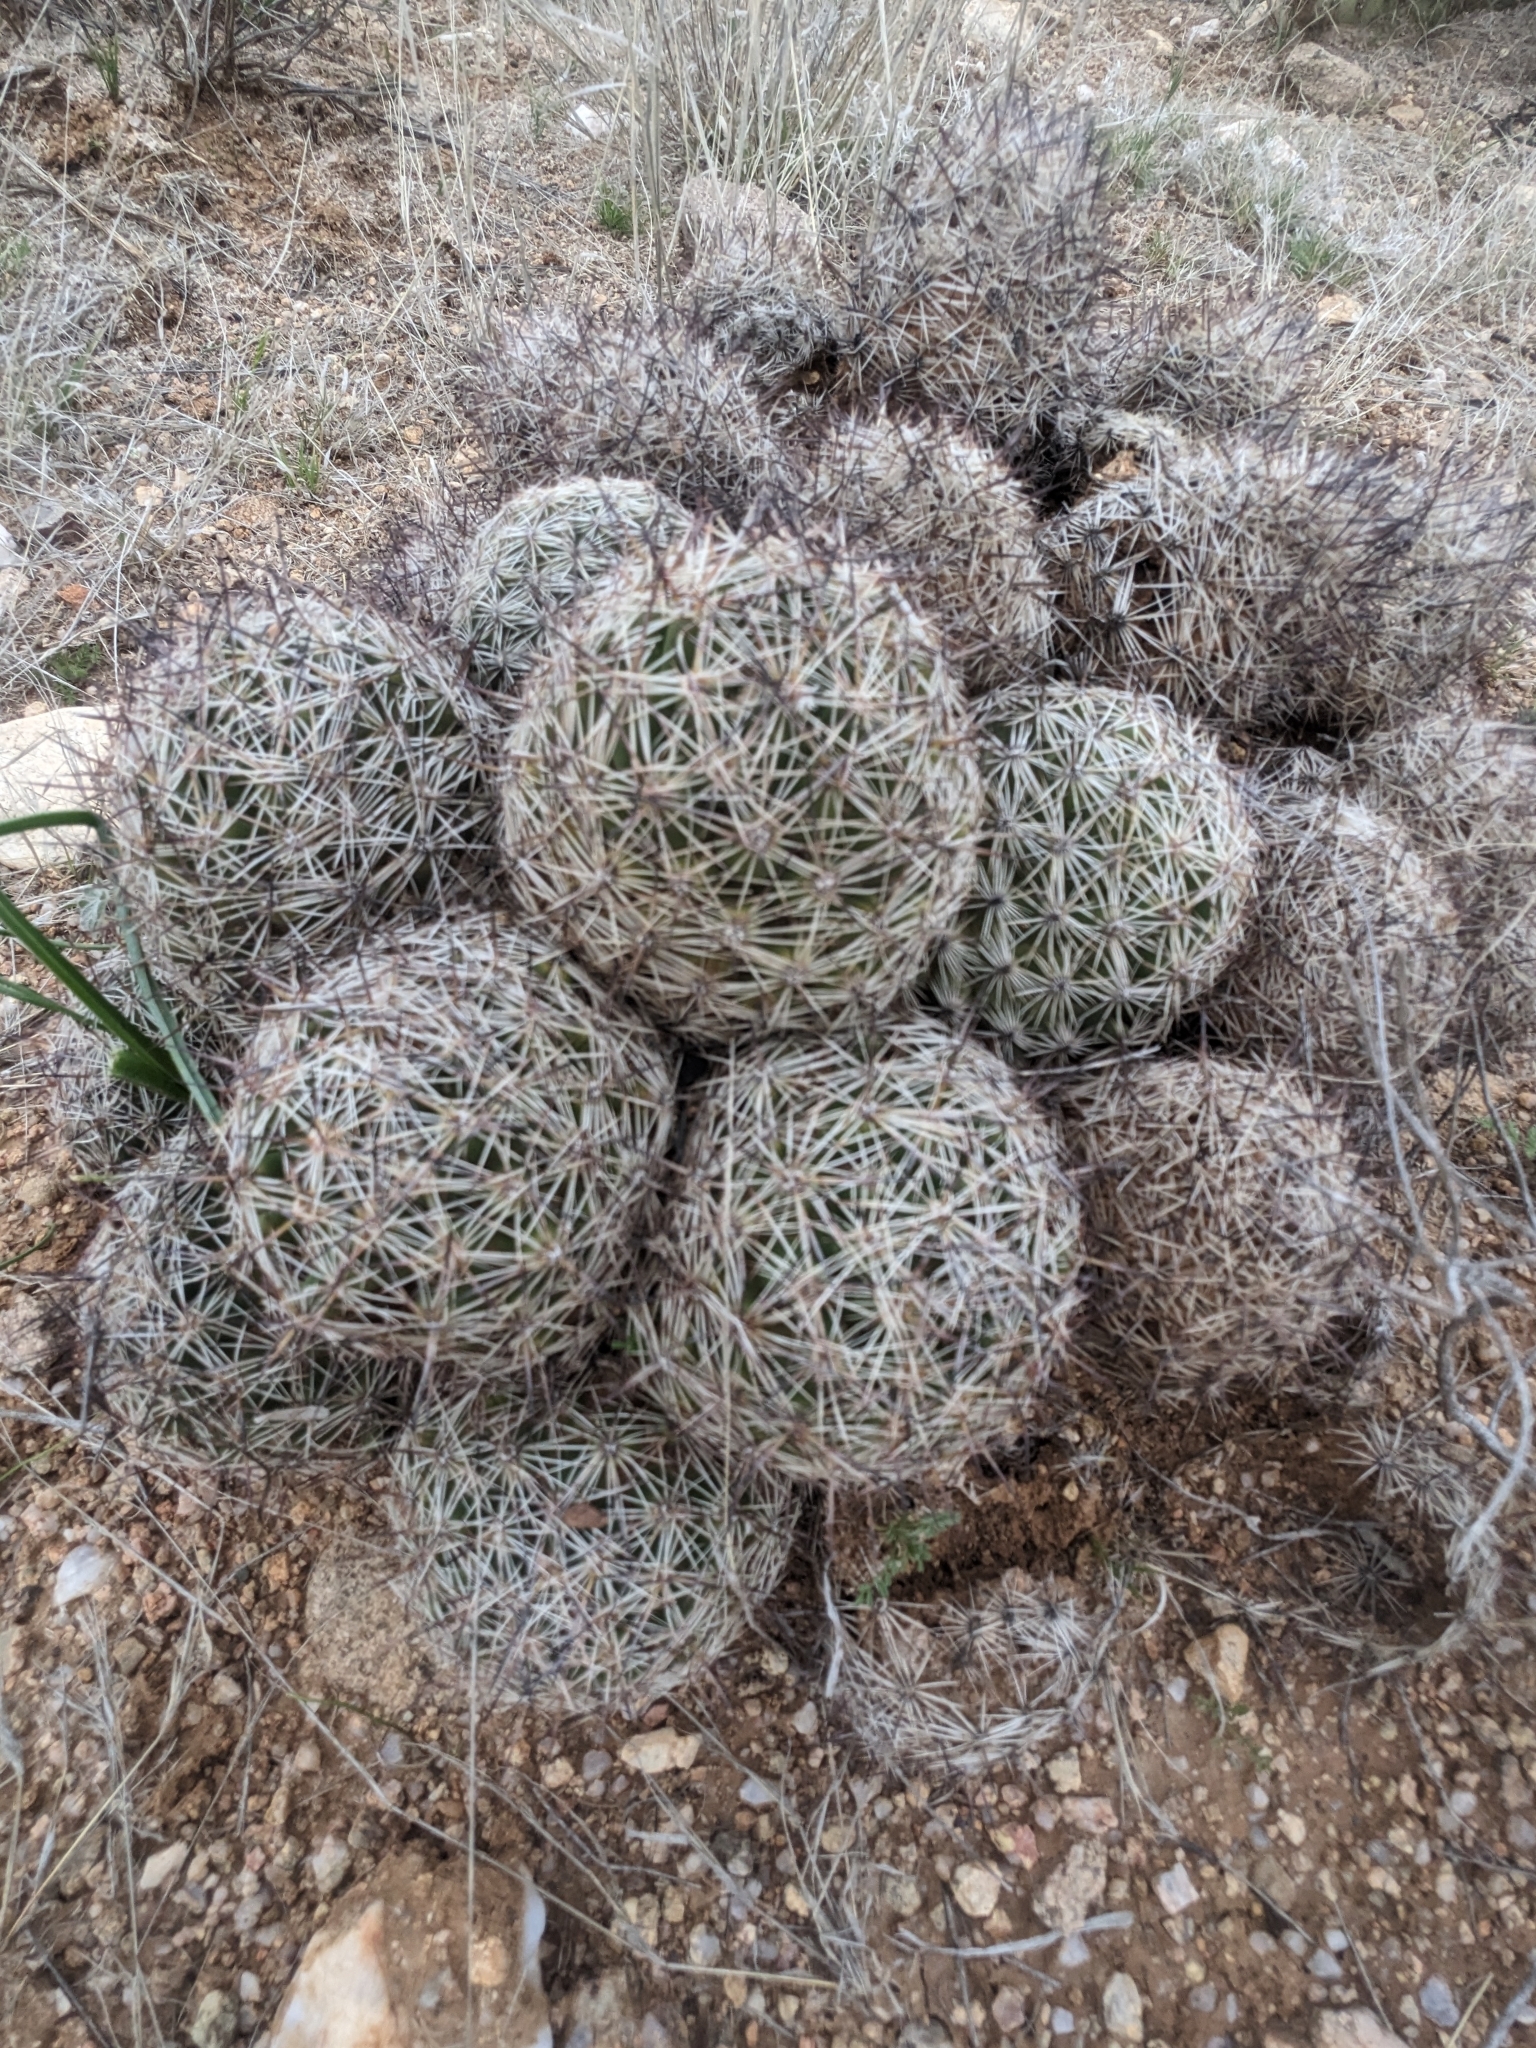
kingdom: Plantae
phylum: Tracheophyta
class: Magnoliopsida
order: Caryophyllales
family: Cactaceae
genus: Pelecyphora
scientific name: Pelecyphora vivipara
